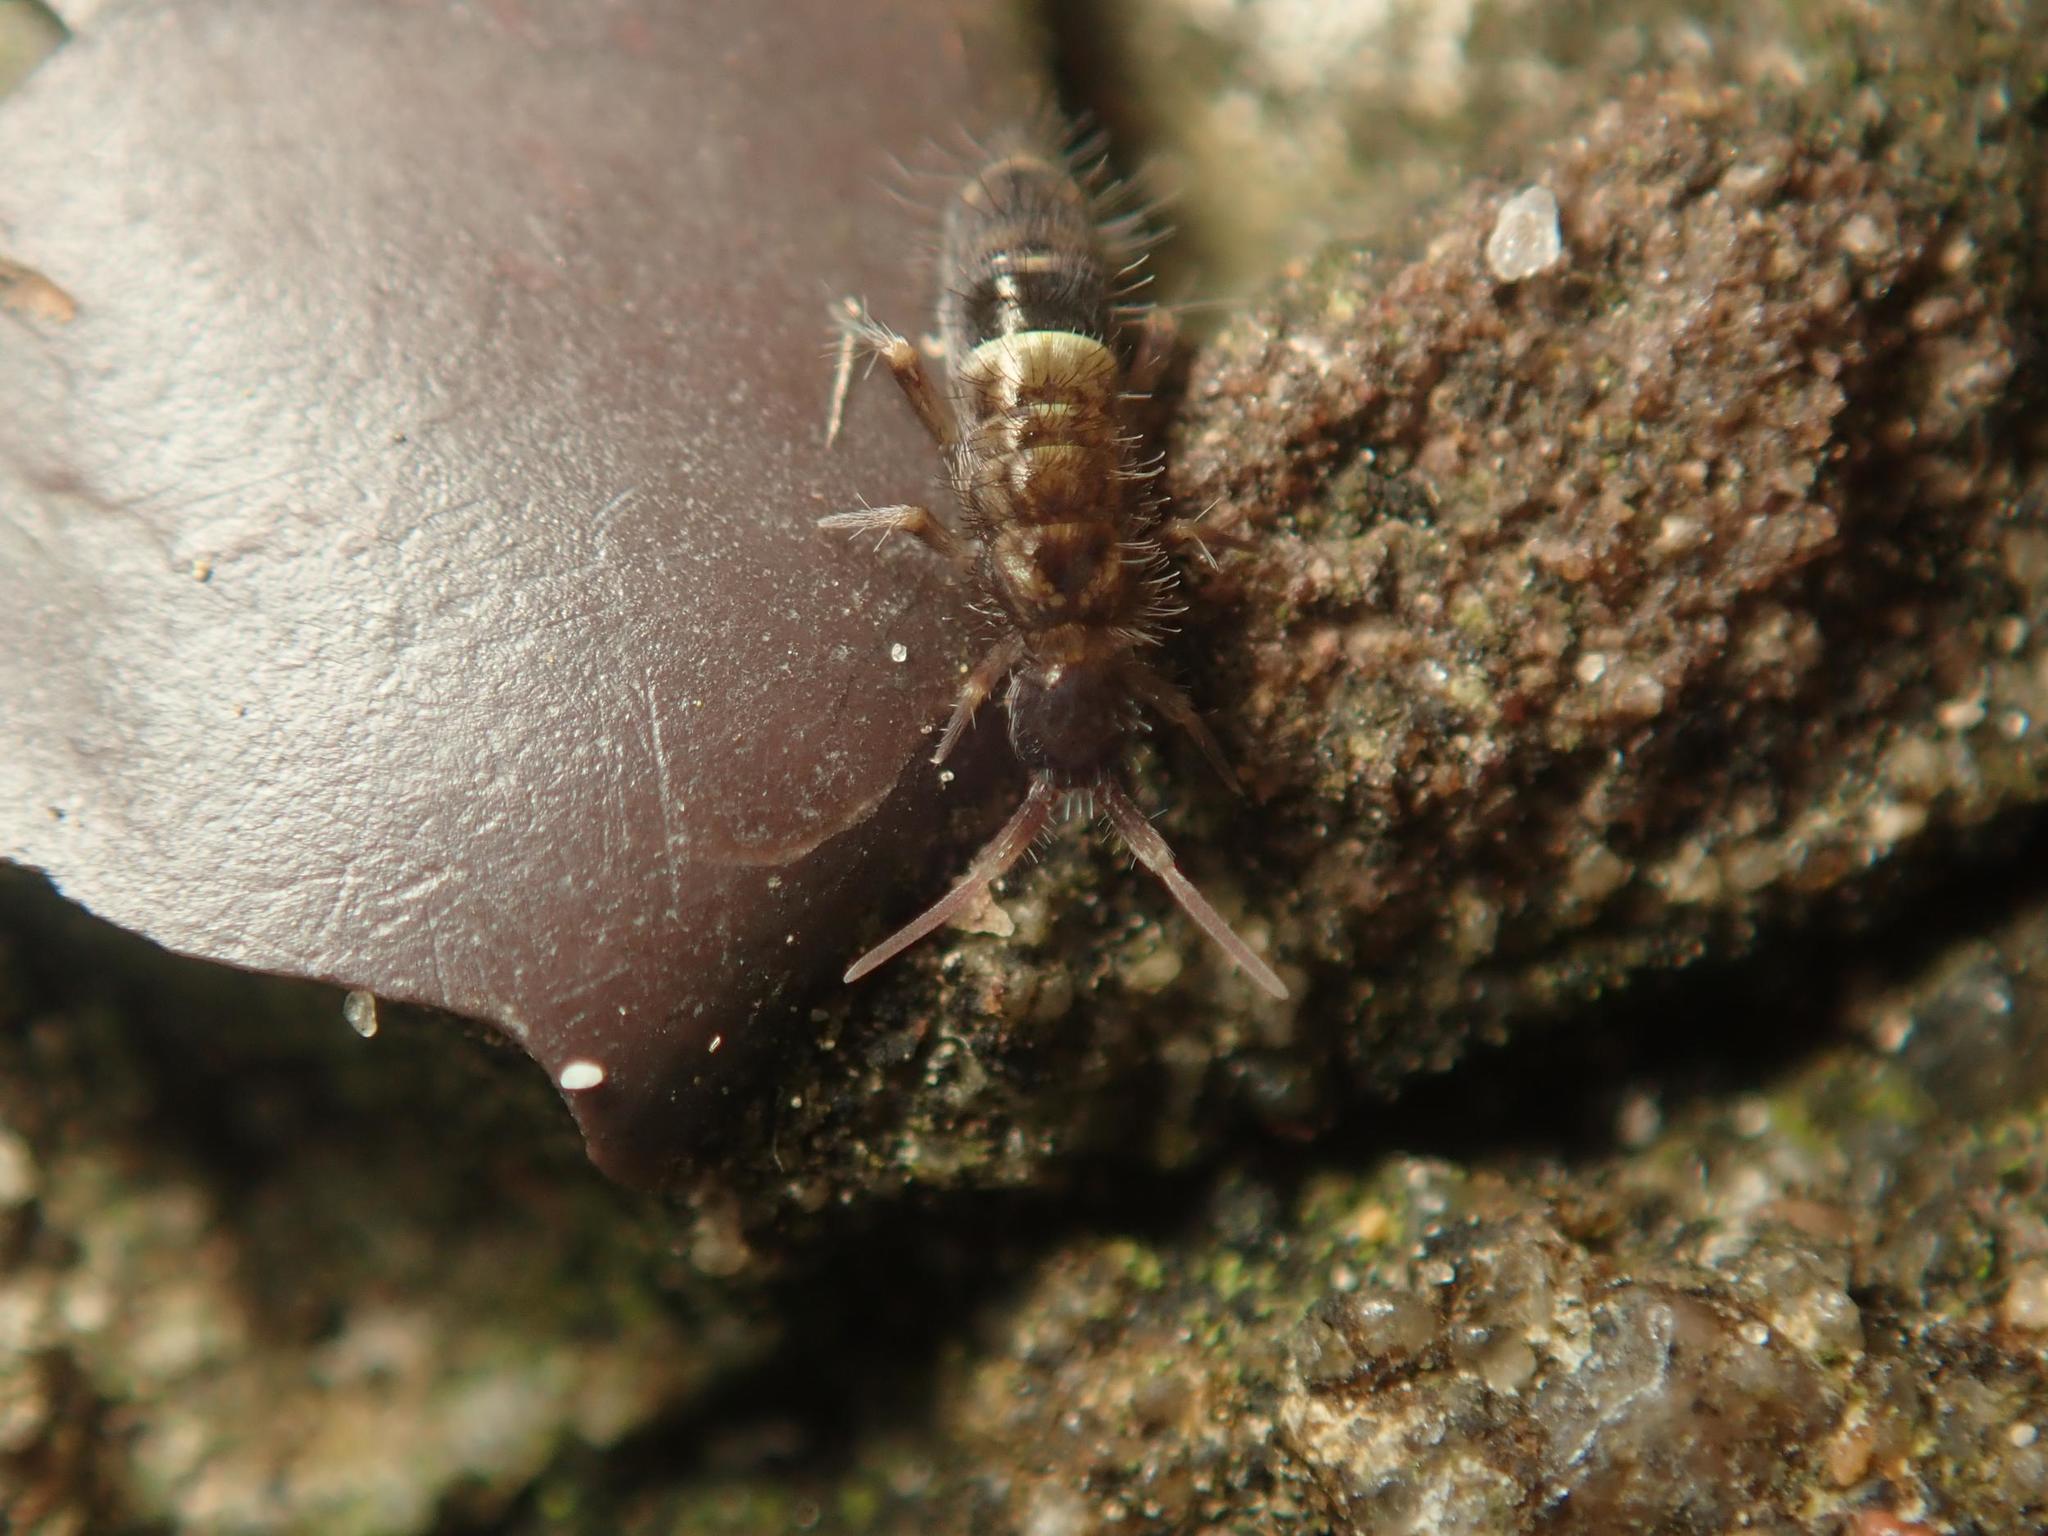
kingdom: Animalia
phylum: Arthropoda
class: Collembola
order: Entomobryomorpha
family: Orchesellidae
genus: Orchesella
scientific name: Orchesella cincta
